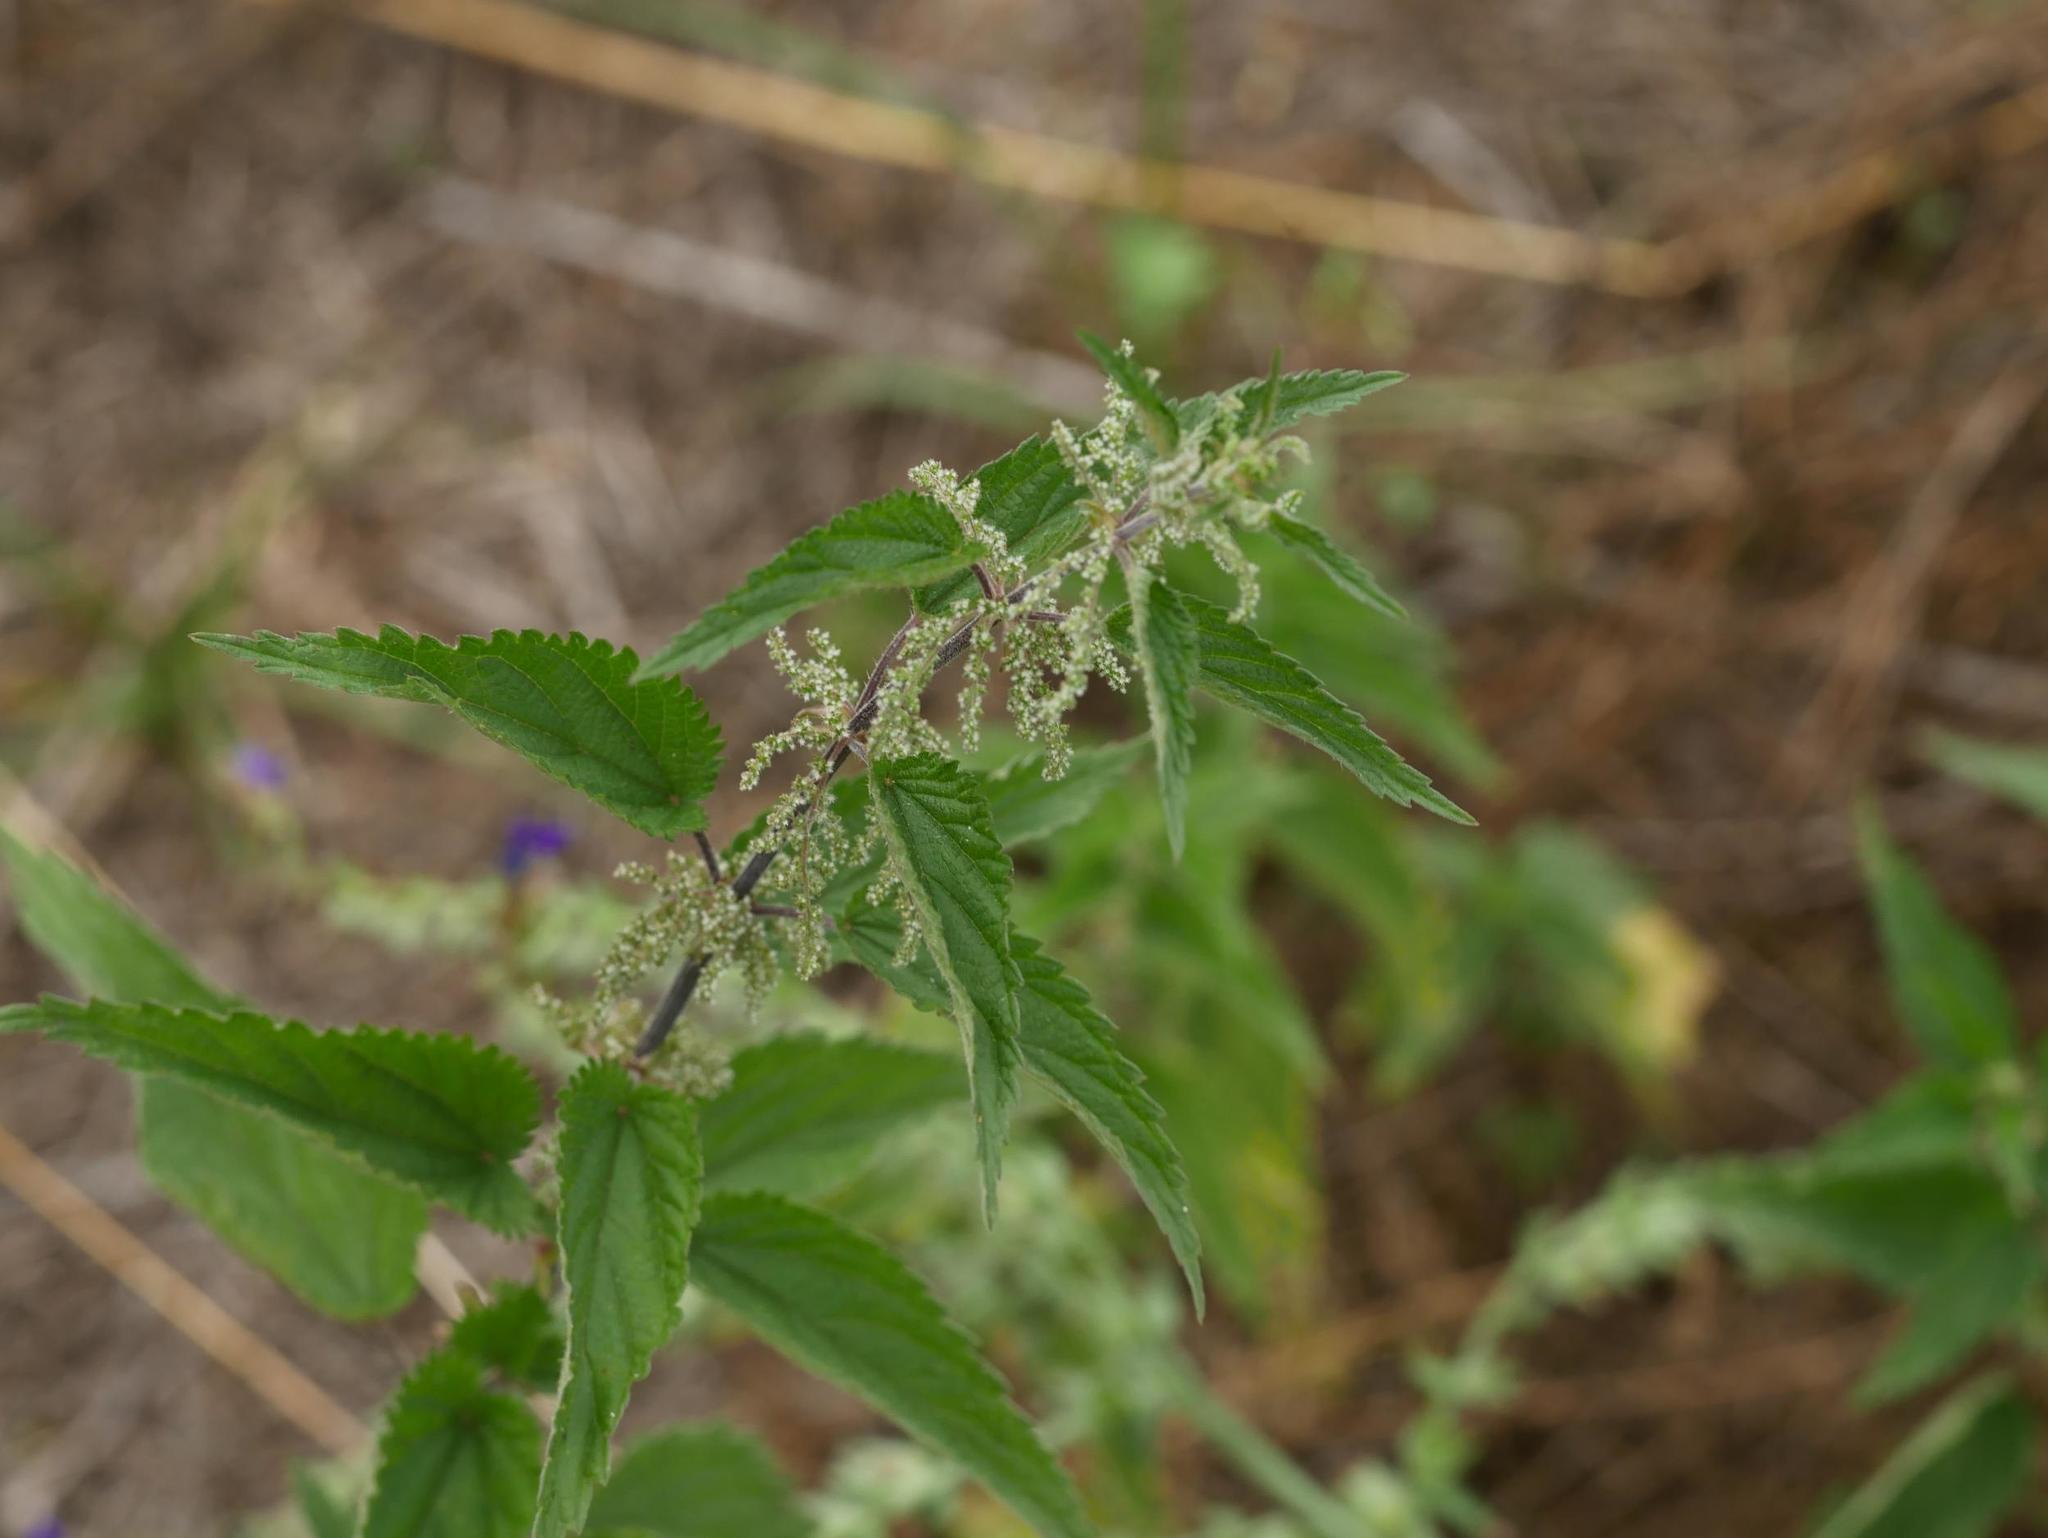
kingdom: Plantae
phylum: Tracheophyta
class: Magnoliopsida
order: Rosales
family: Urticaceae
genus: Urtica
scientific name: Urtica dioica
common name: Common nettle
